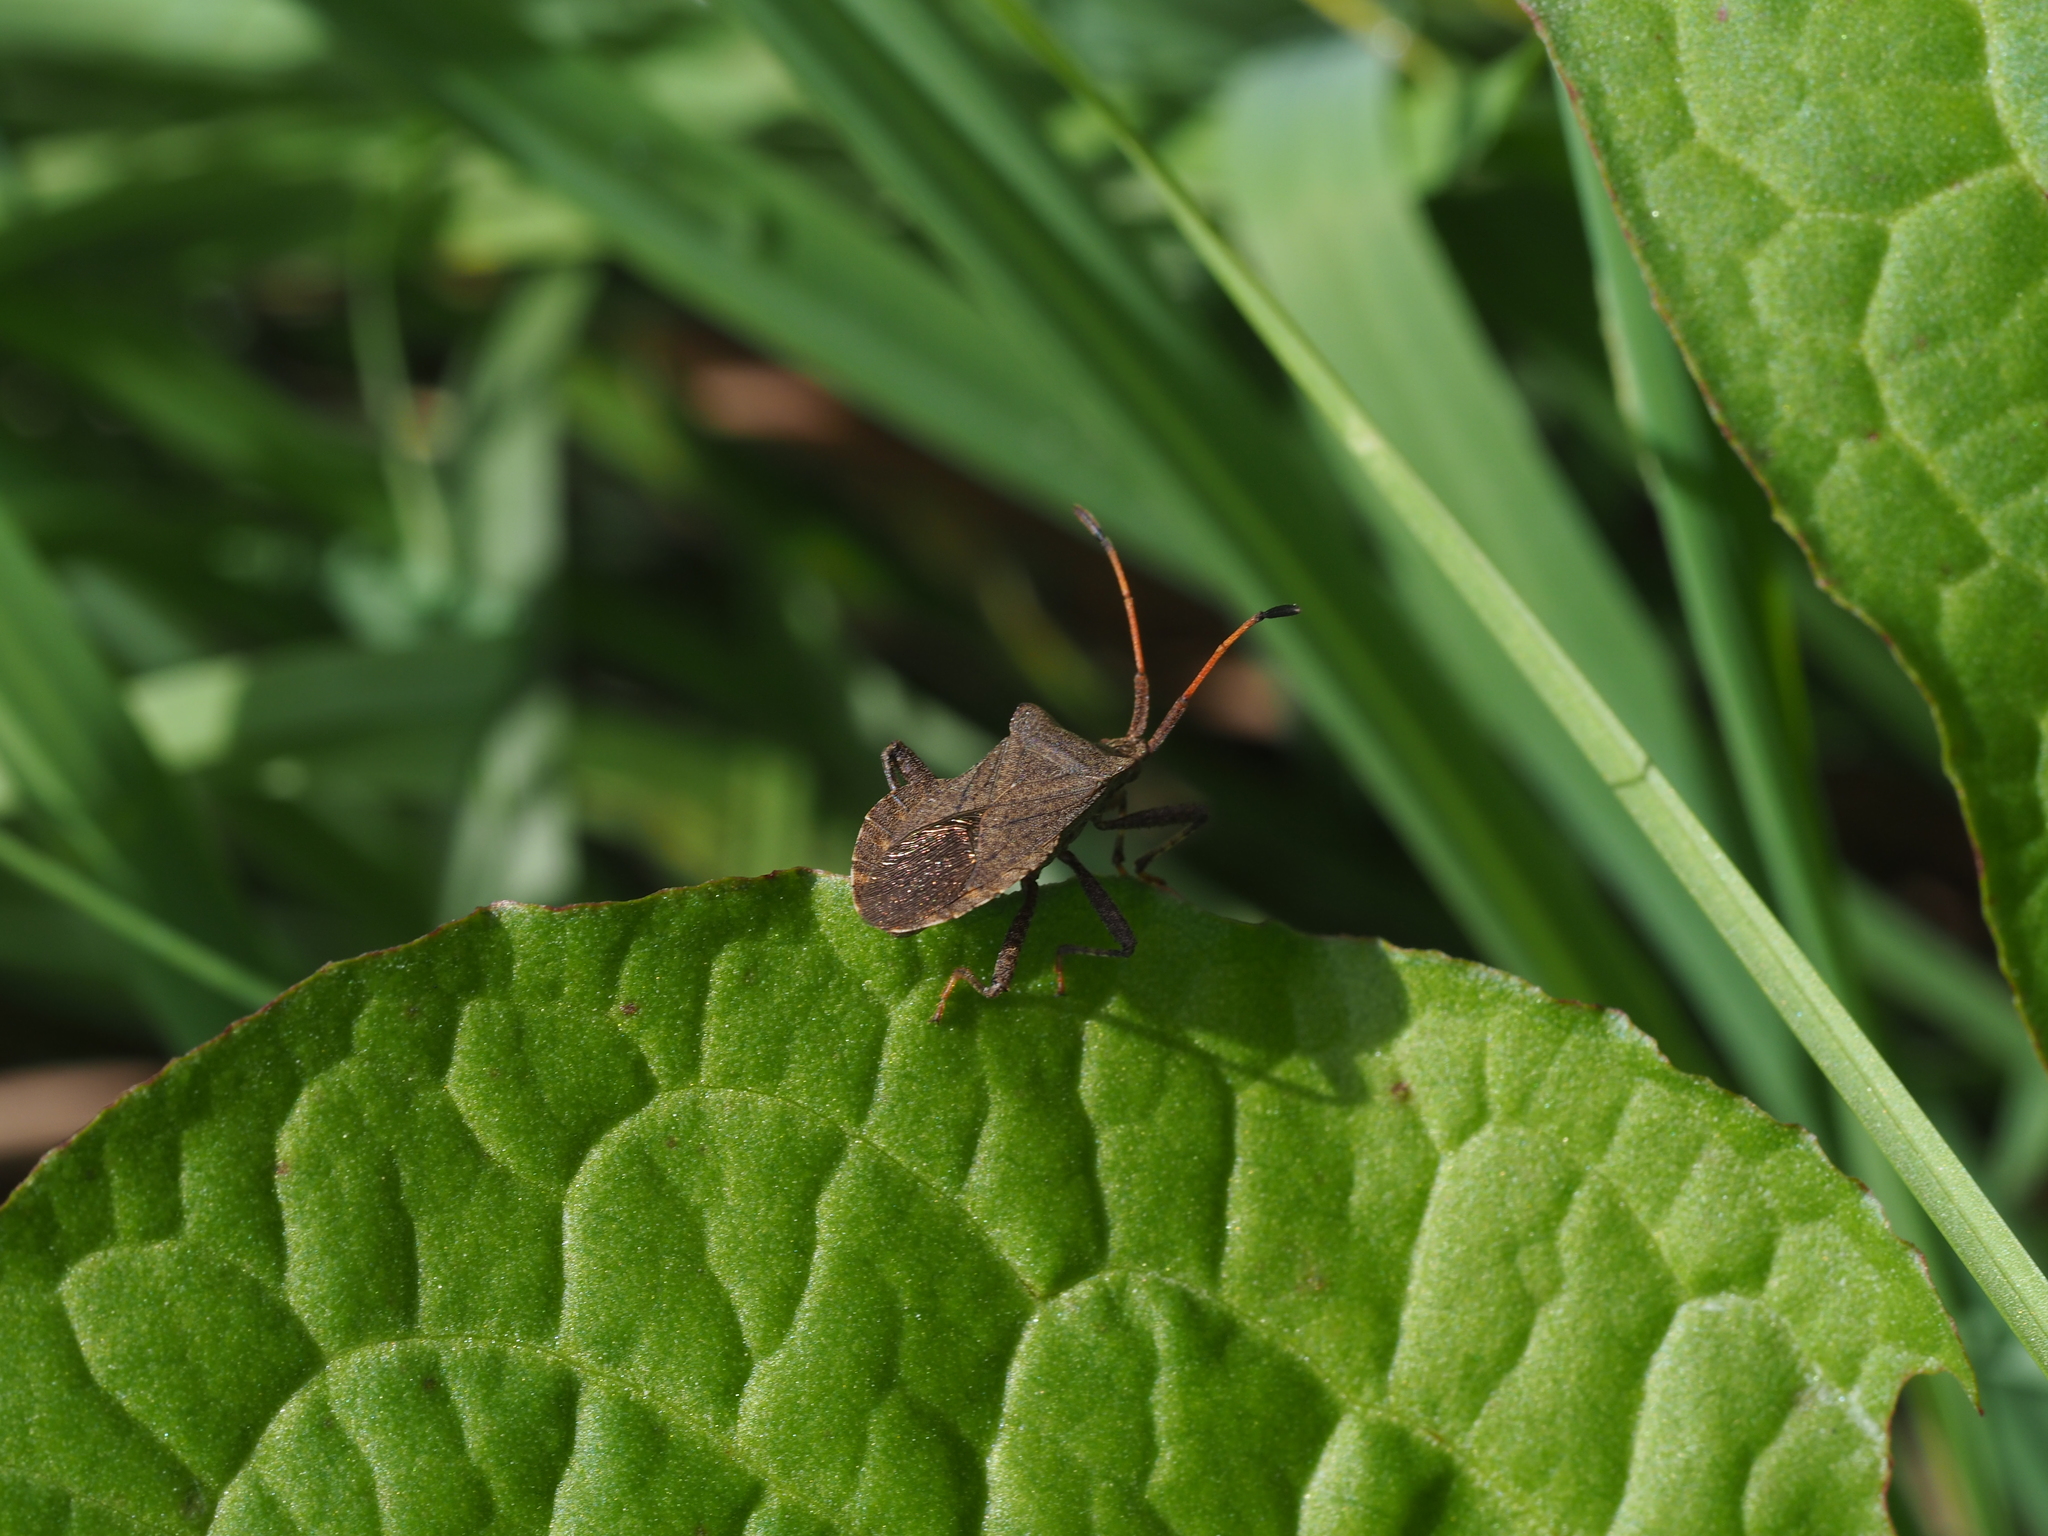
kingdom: Animalia
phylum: Arthropoda
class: Insecta
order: Hemiptera
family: Coreidae
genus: Coreus
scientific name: Coreus marginatus
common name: Dock bug
